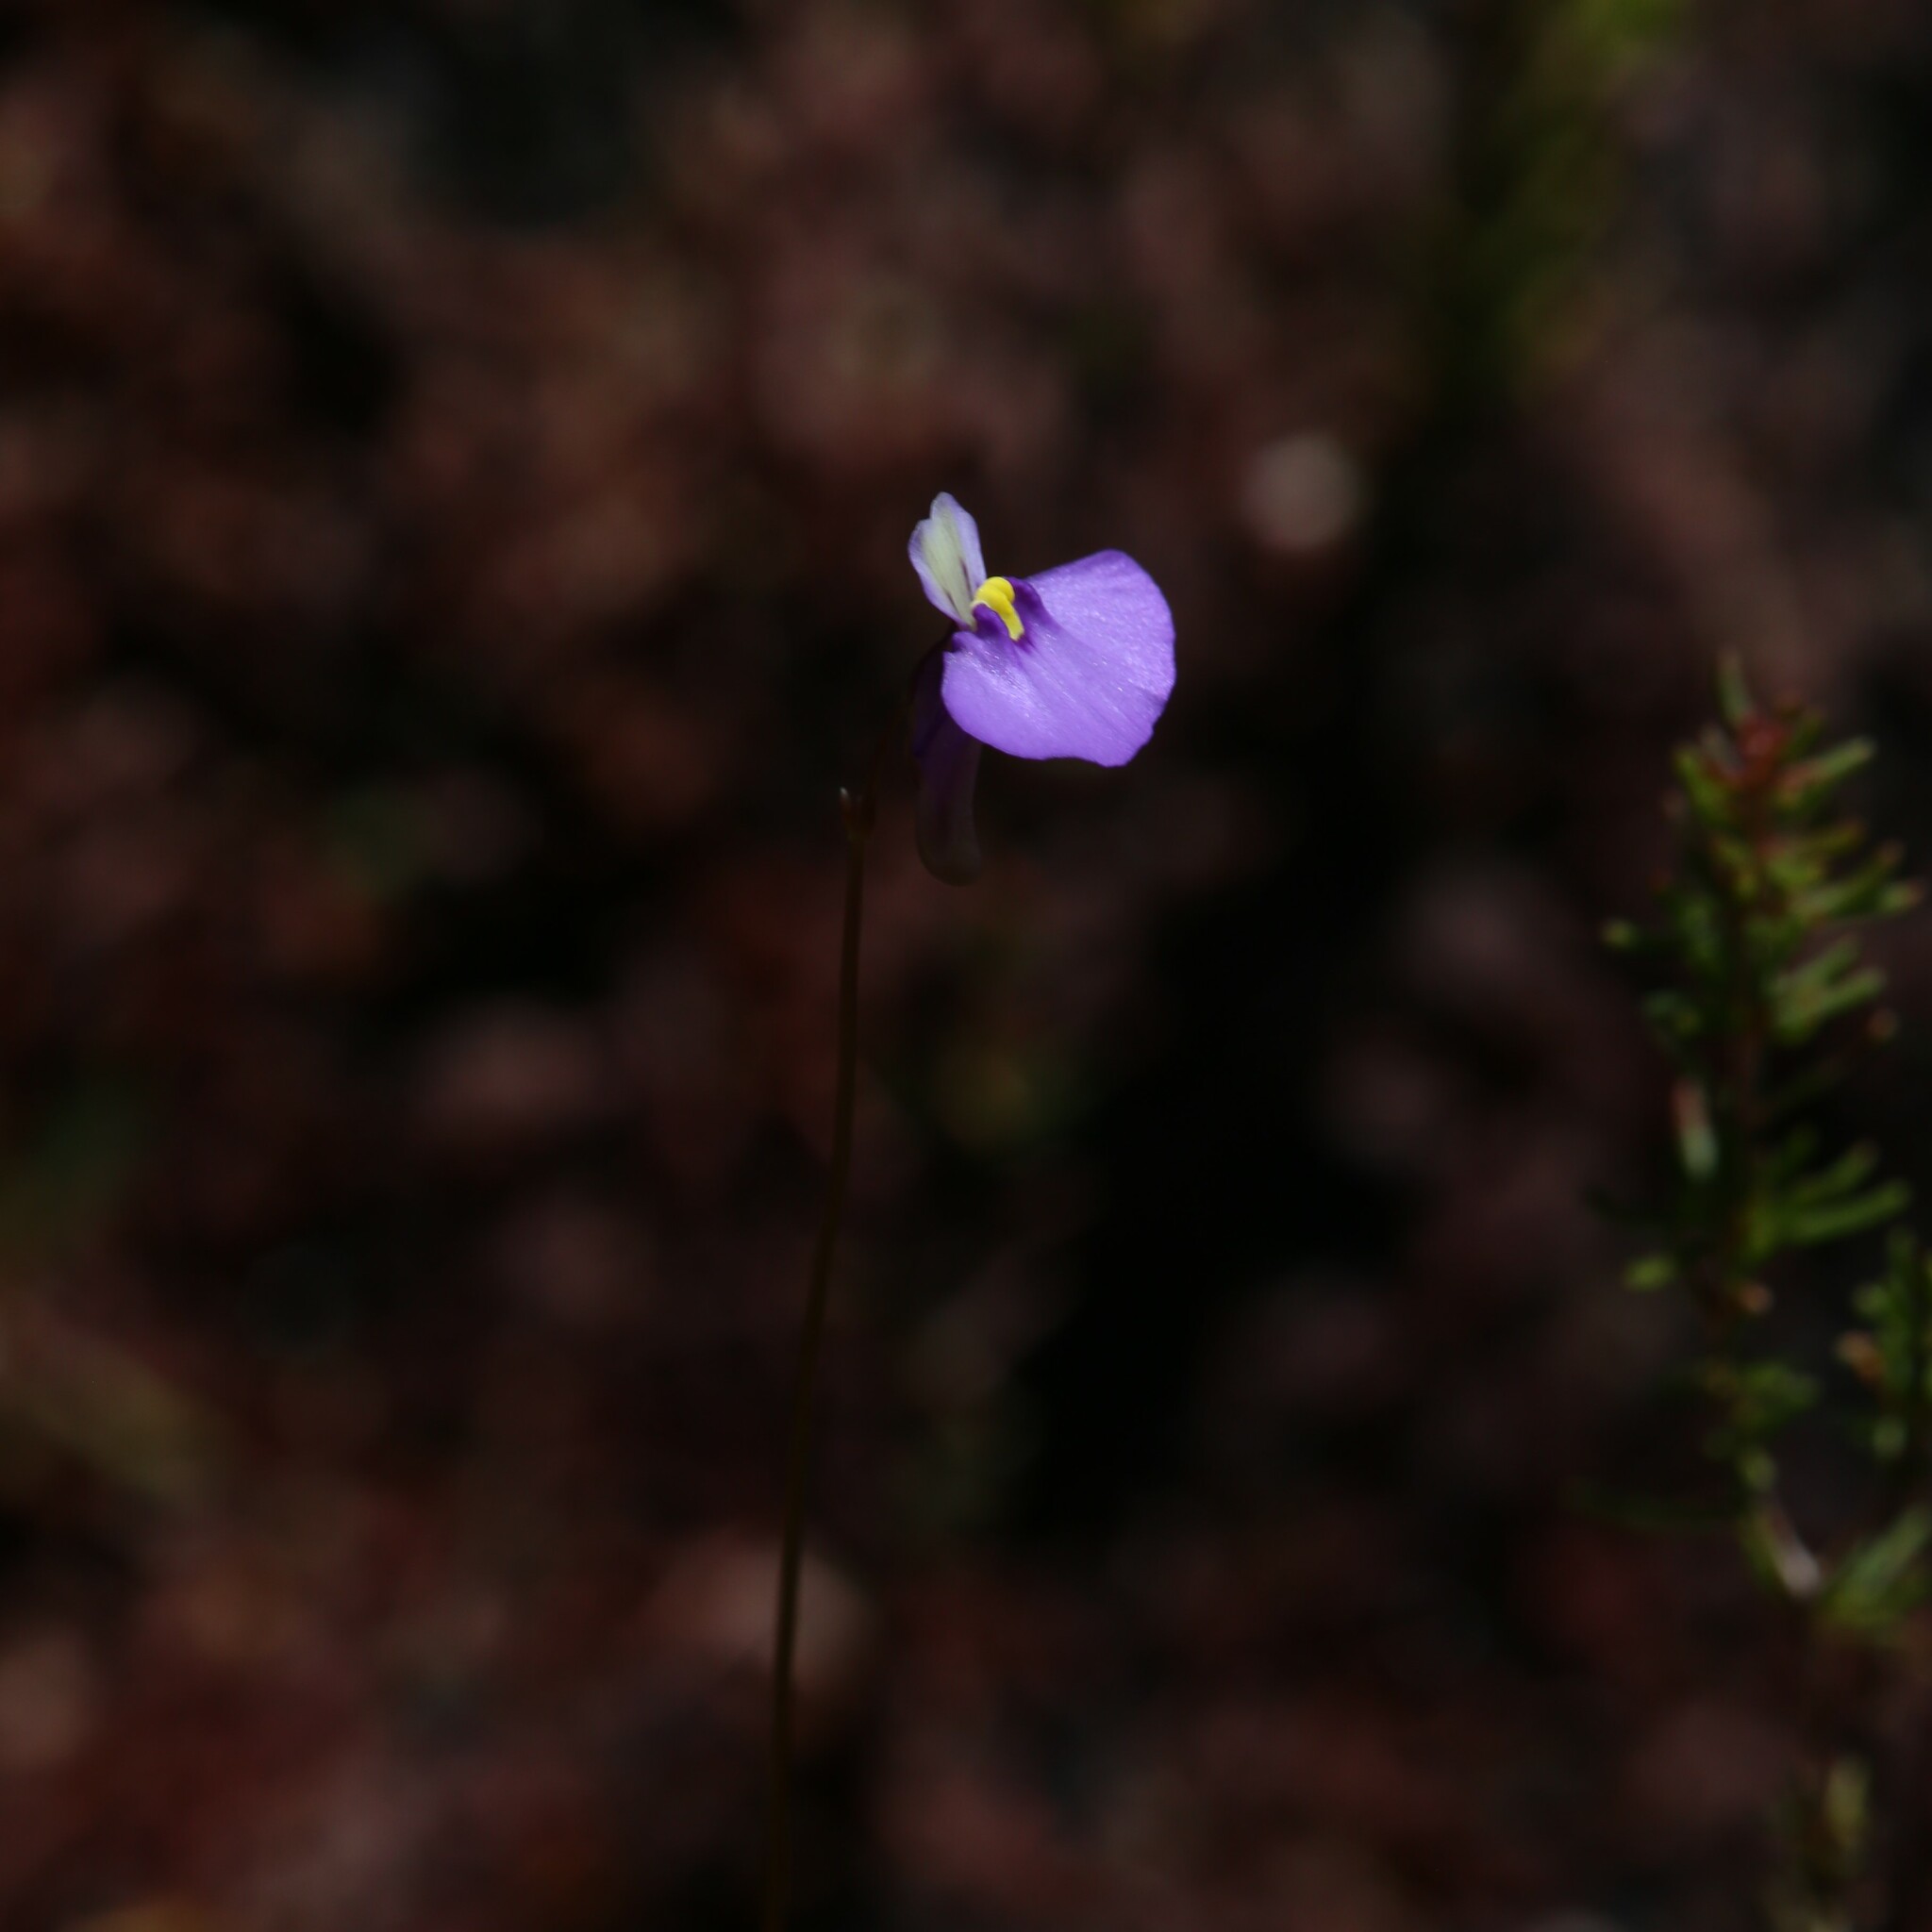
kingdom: Plantae
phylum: Tracheophyta
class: Magnoliopsida
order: Lamiales
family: Lentibulariaceae
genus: Utricularia
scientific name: Utricularia paulineae
